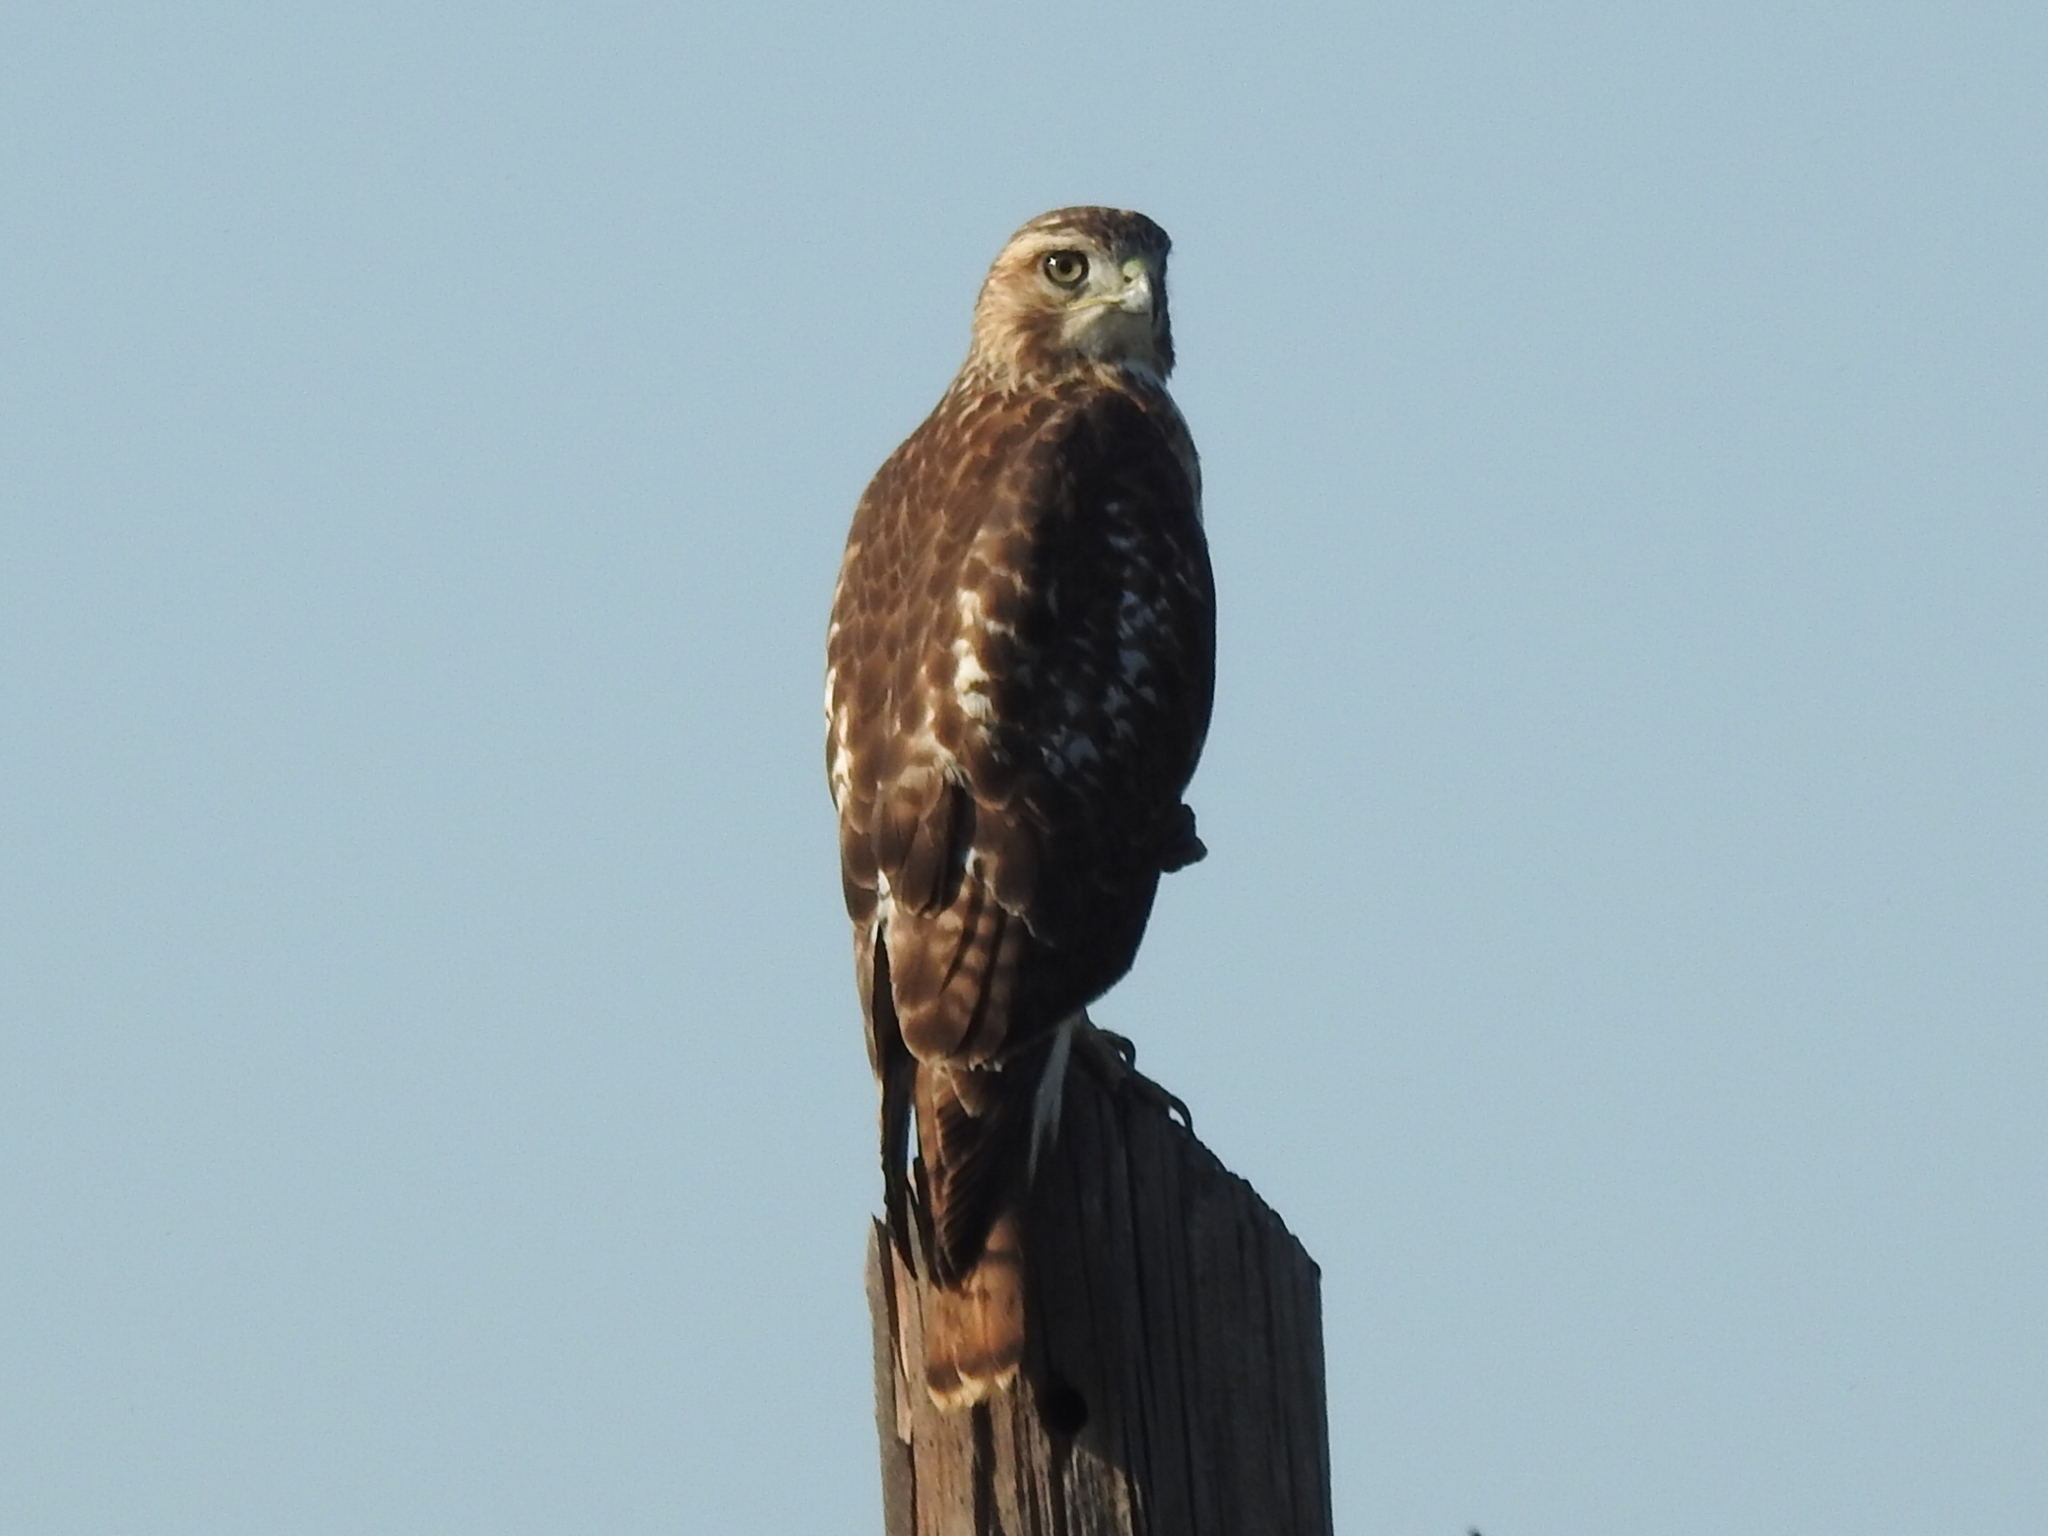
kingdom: Animalia
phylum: Chordata
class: Aves
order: Accipitriformes
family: Accipitridae
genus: Buteo
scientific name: Buteo jamaicensis
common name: Red-tailed hawk
